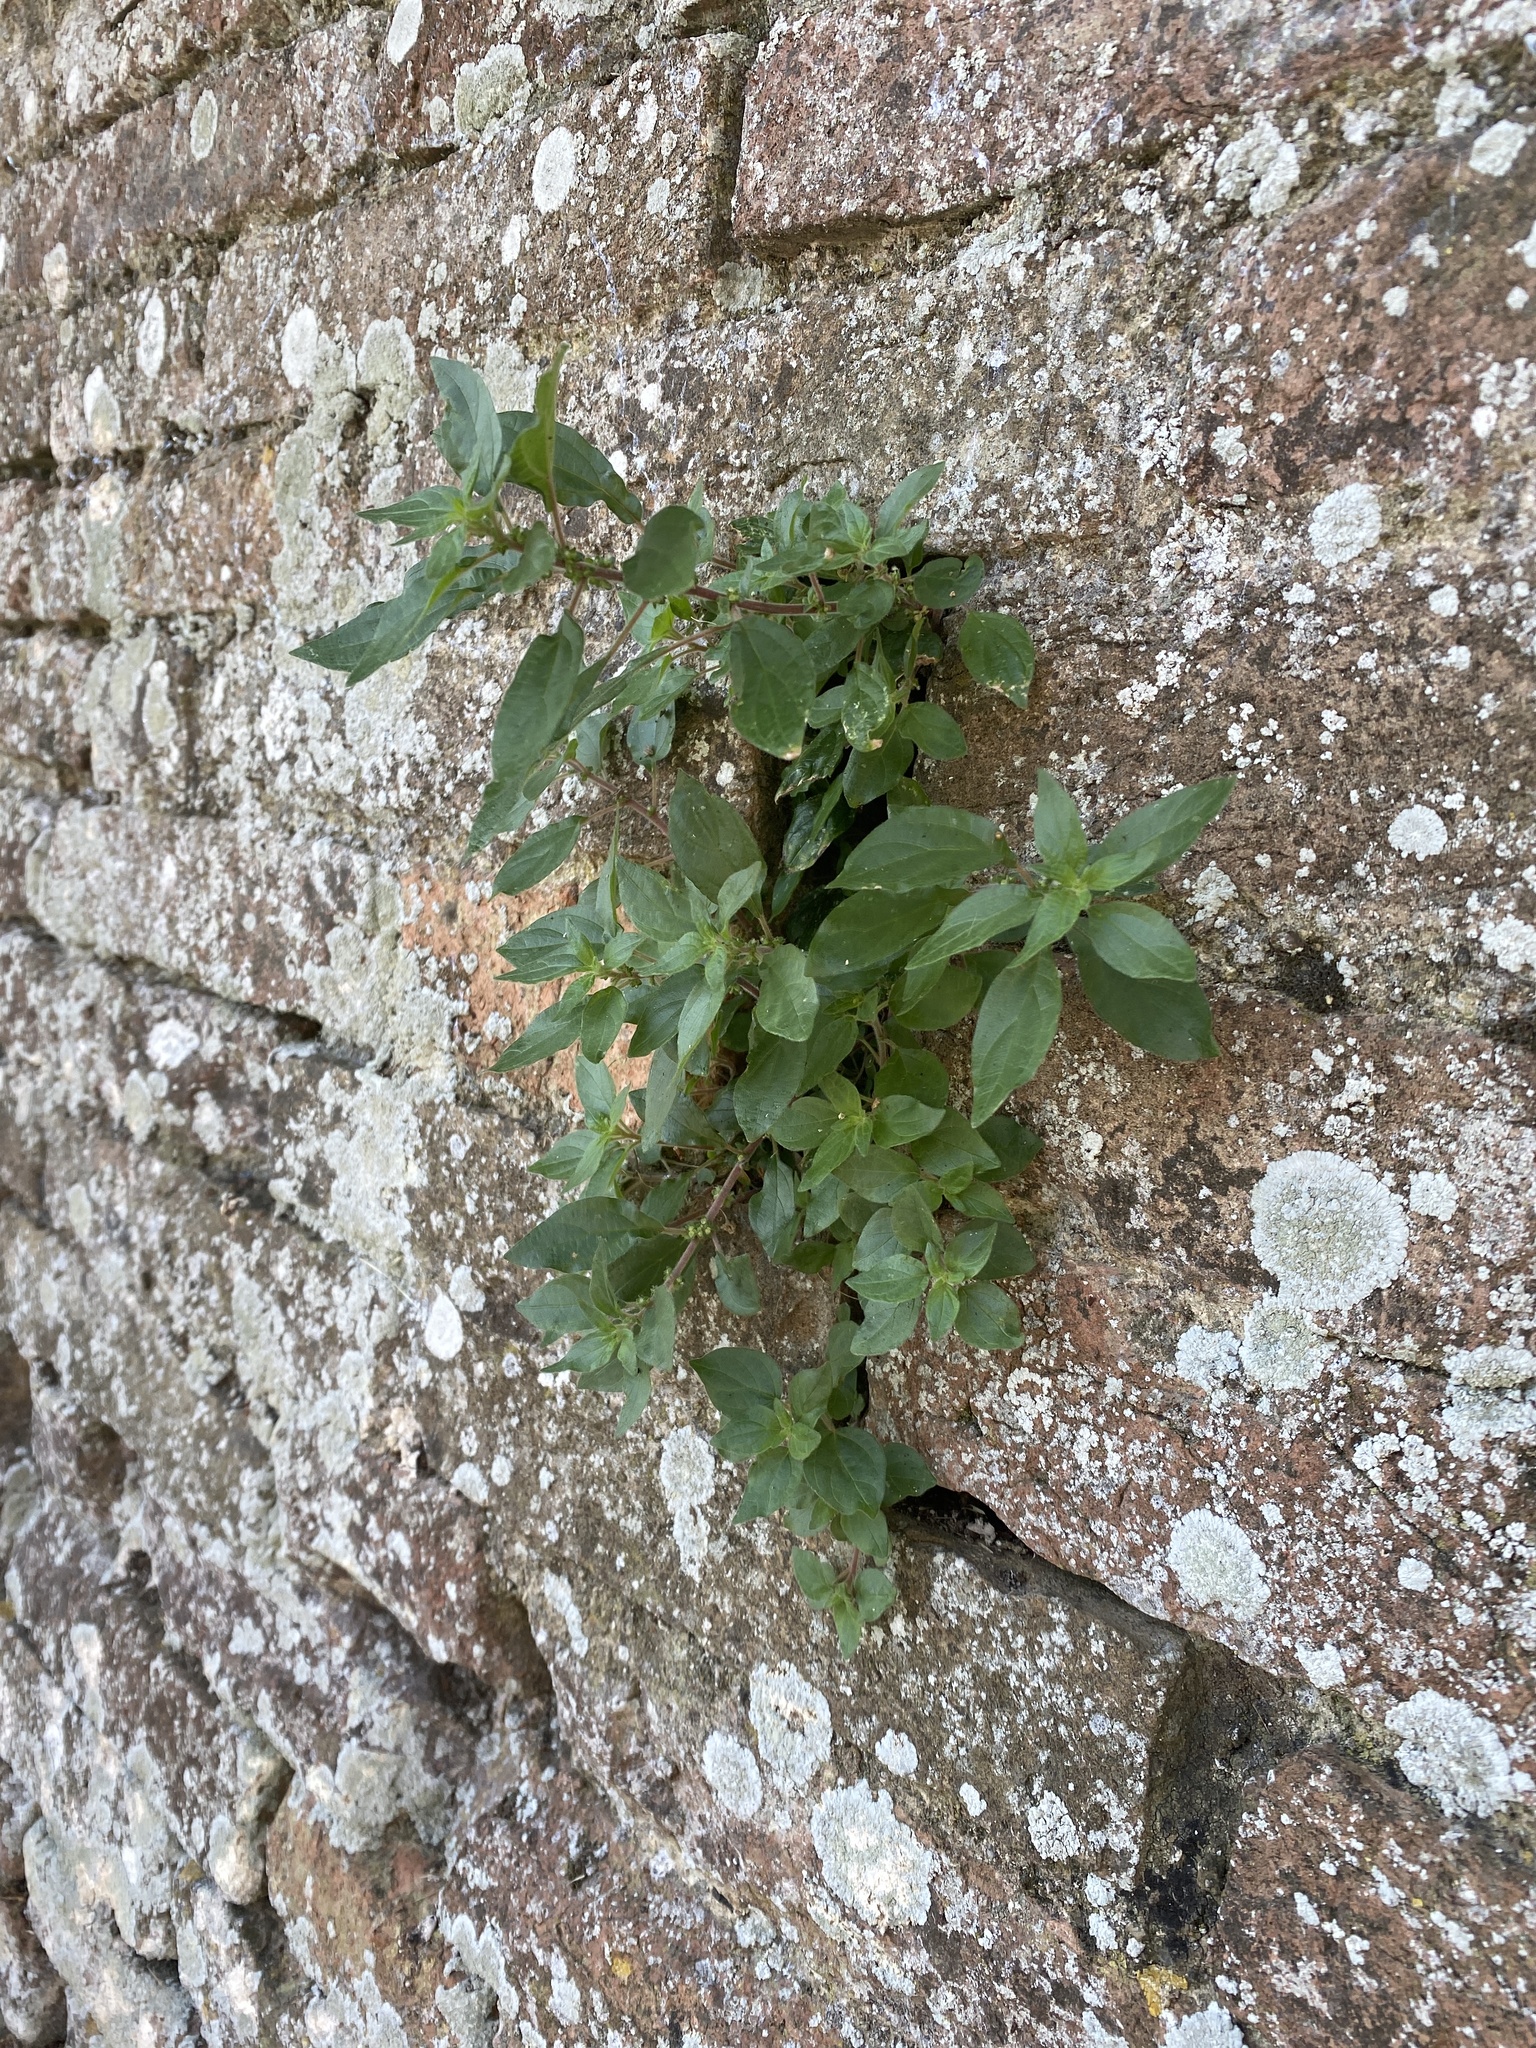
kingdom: Plantae
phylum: Tracheophyta
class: Magnoliopsida
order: Rosales
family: Urticaceae
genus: Parietaria
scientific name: Parietaria judaica
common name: Pellitory-of-the-wall
